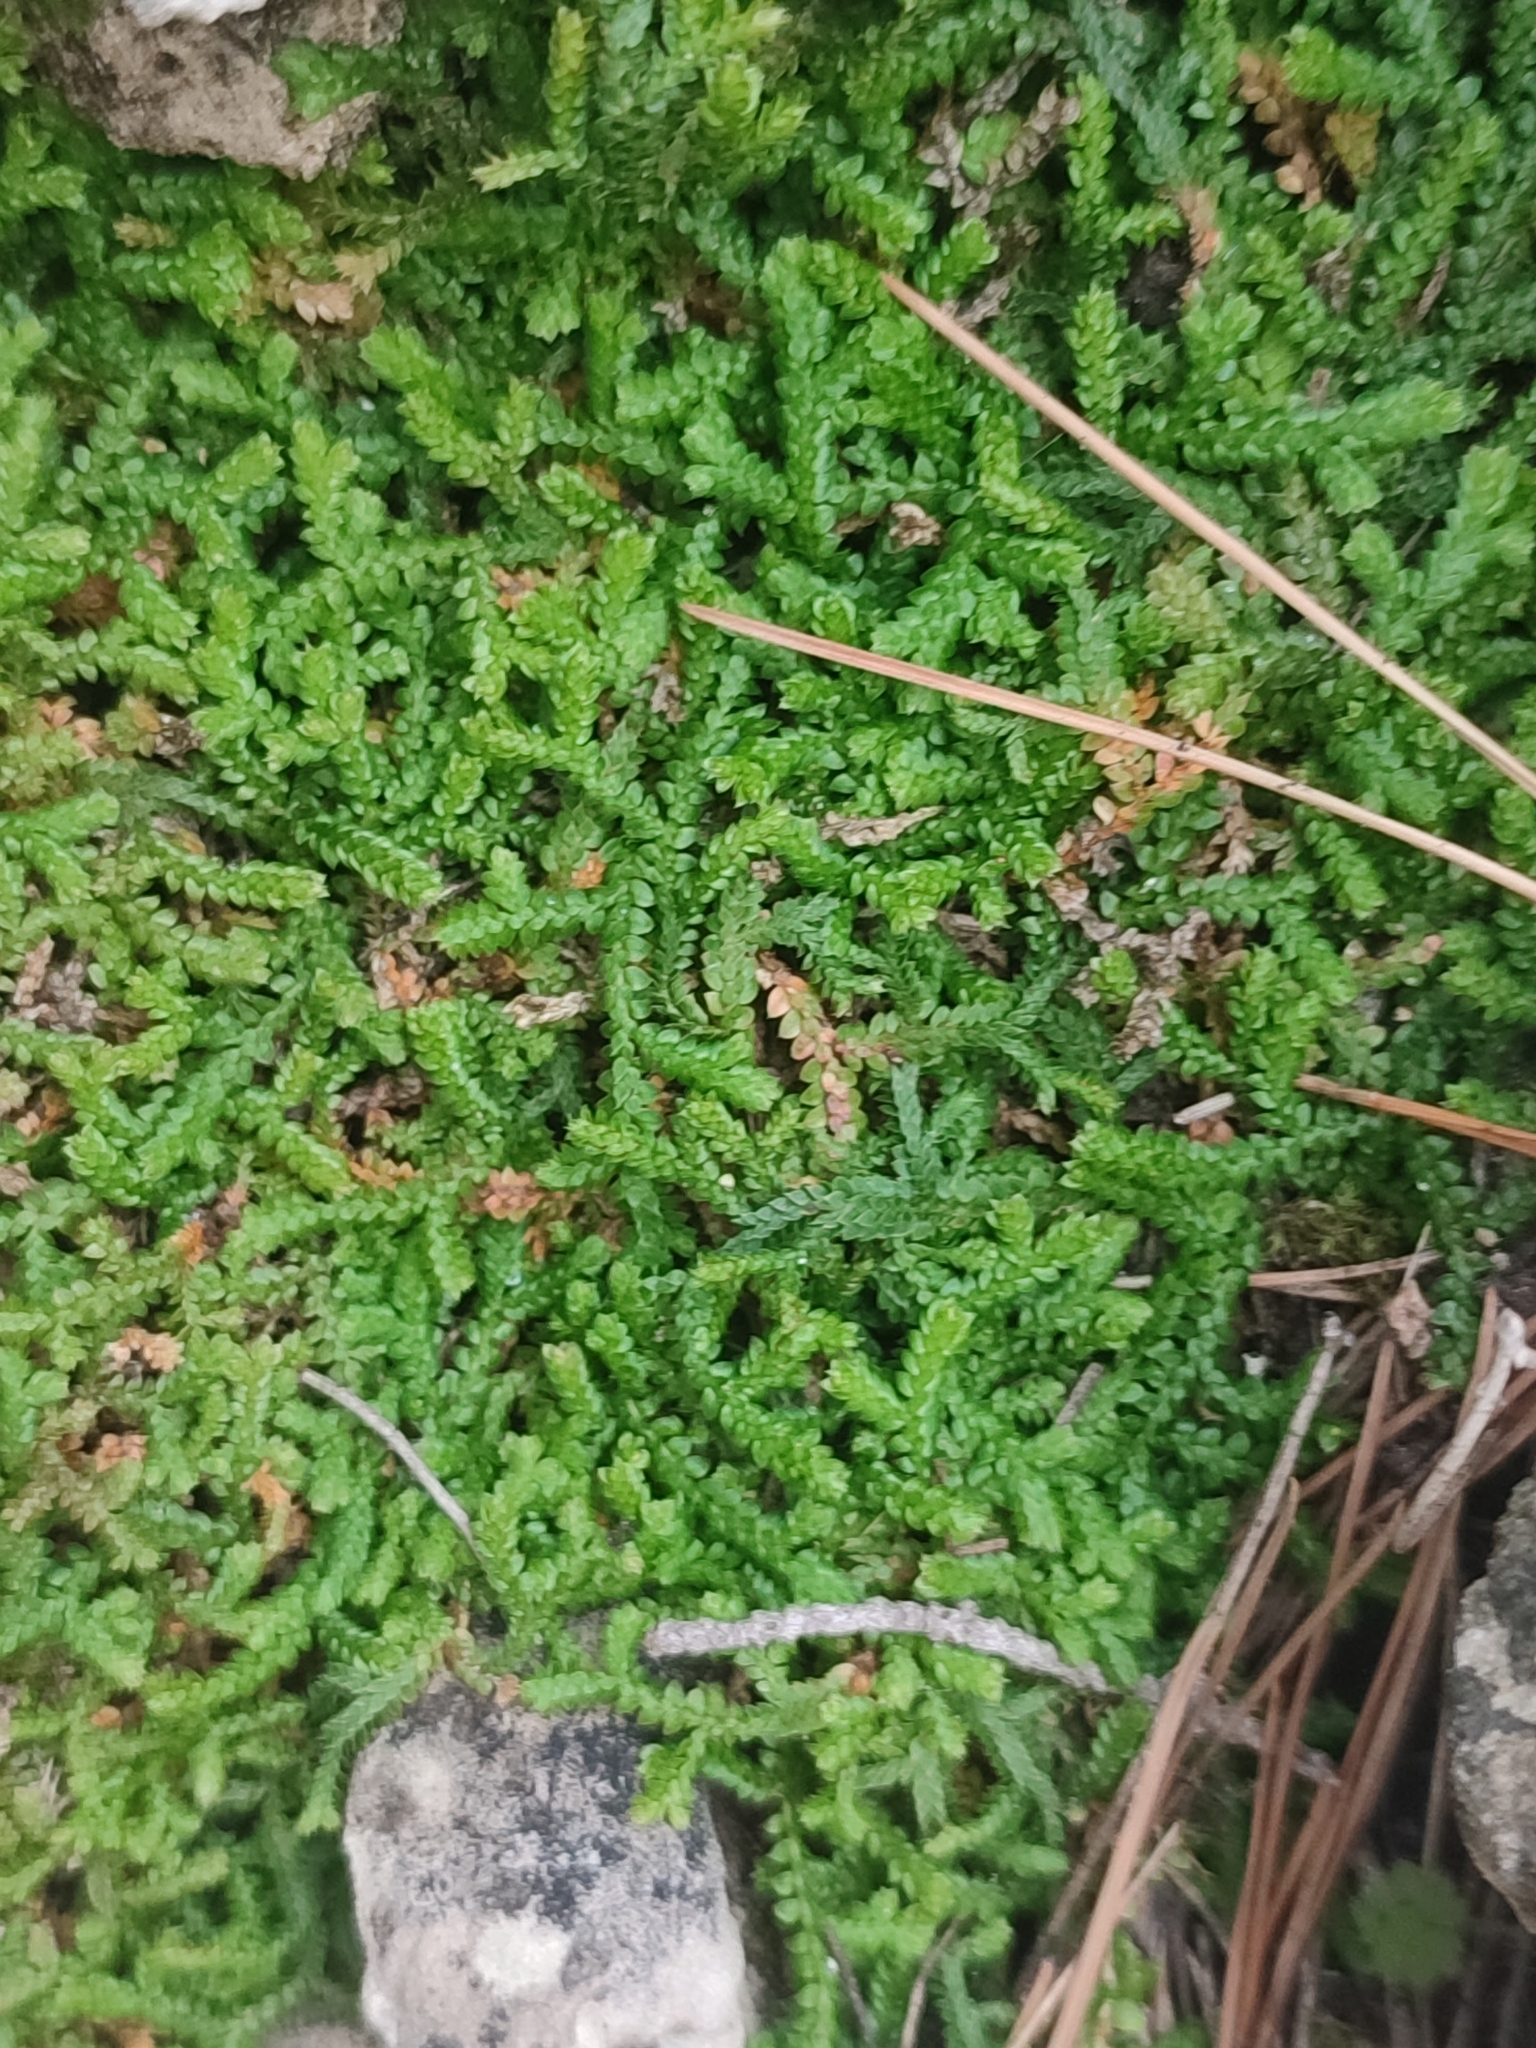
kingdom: Plantae
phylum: Tracheophyta
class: Lycopodiopsida
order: Selaginellales
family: Selaginellaceae
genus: Selaginella
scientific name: Selaginella denticulata
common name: Toothed-leaved clubmoss
